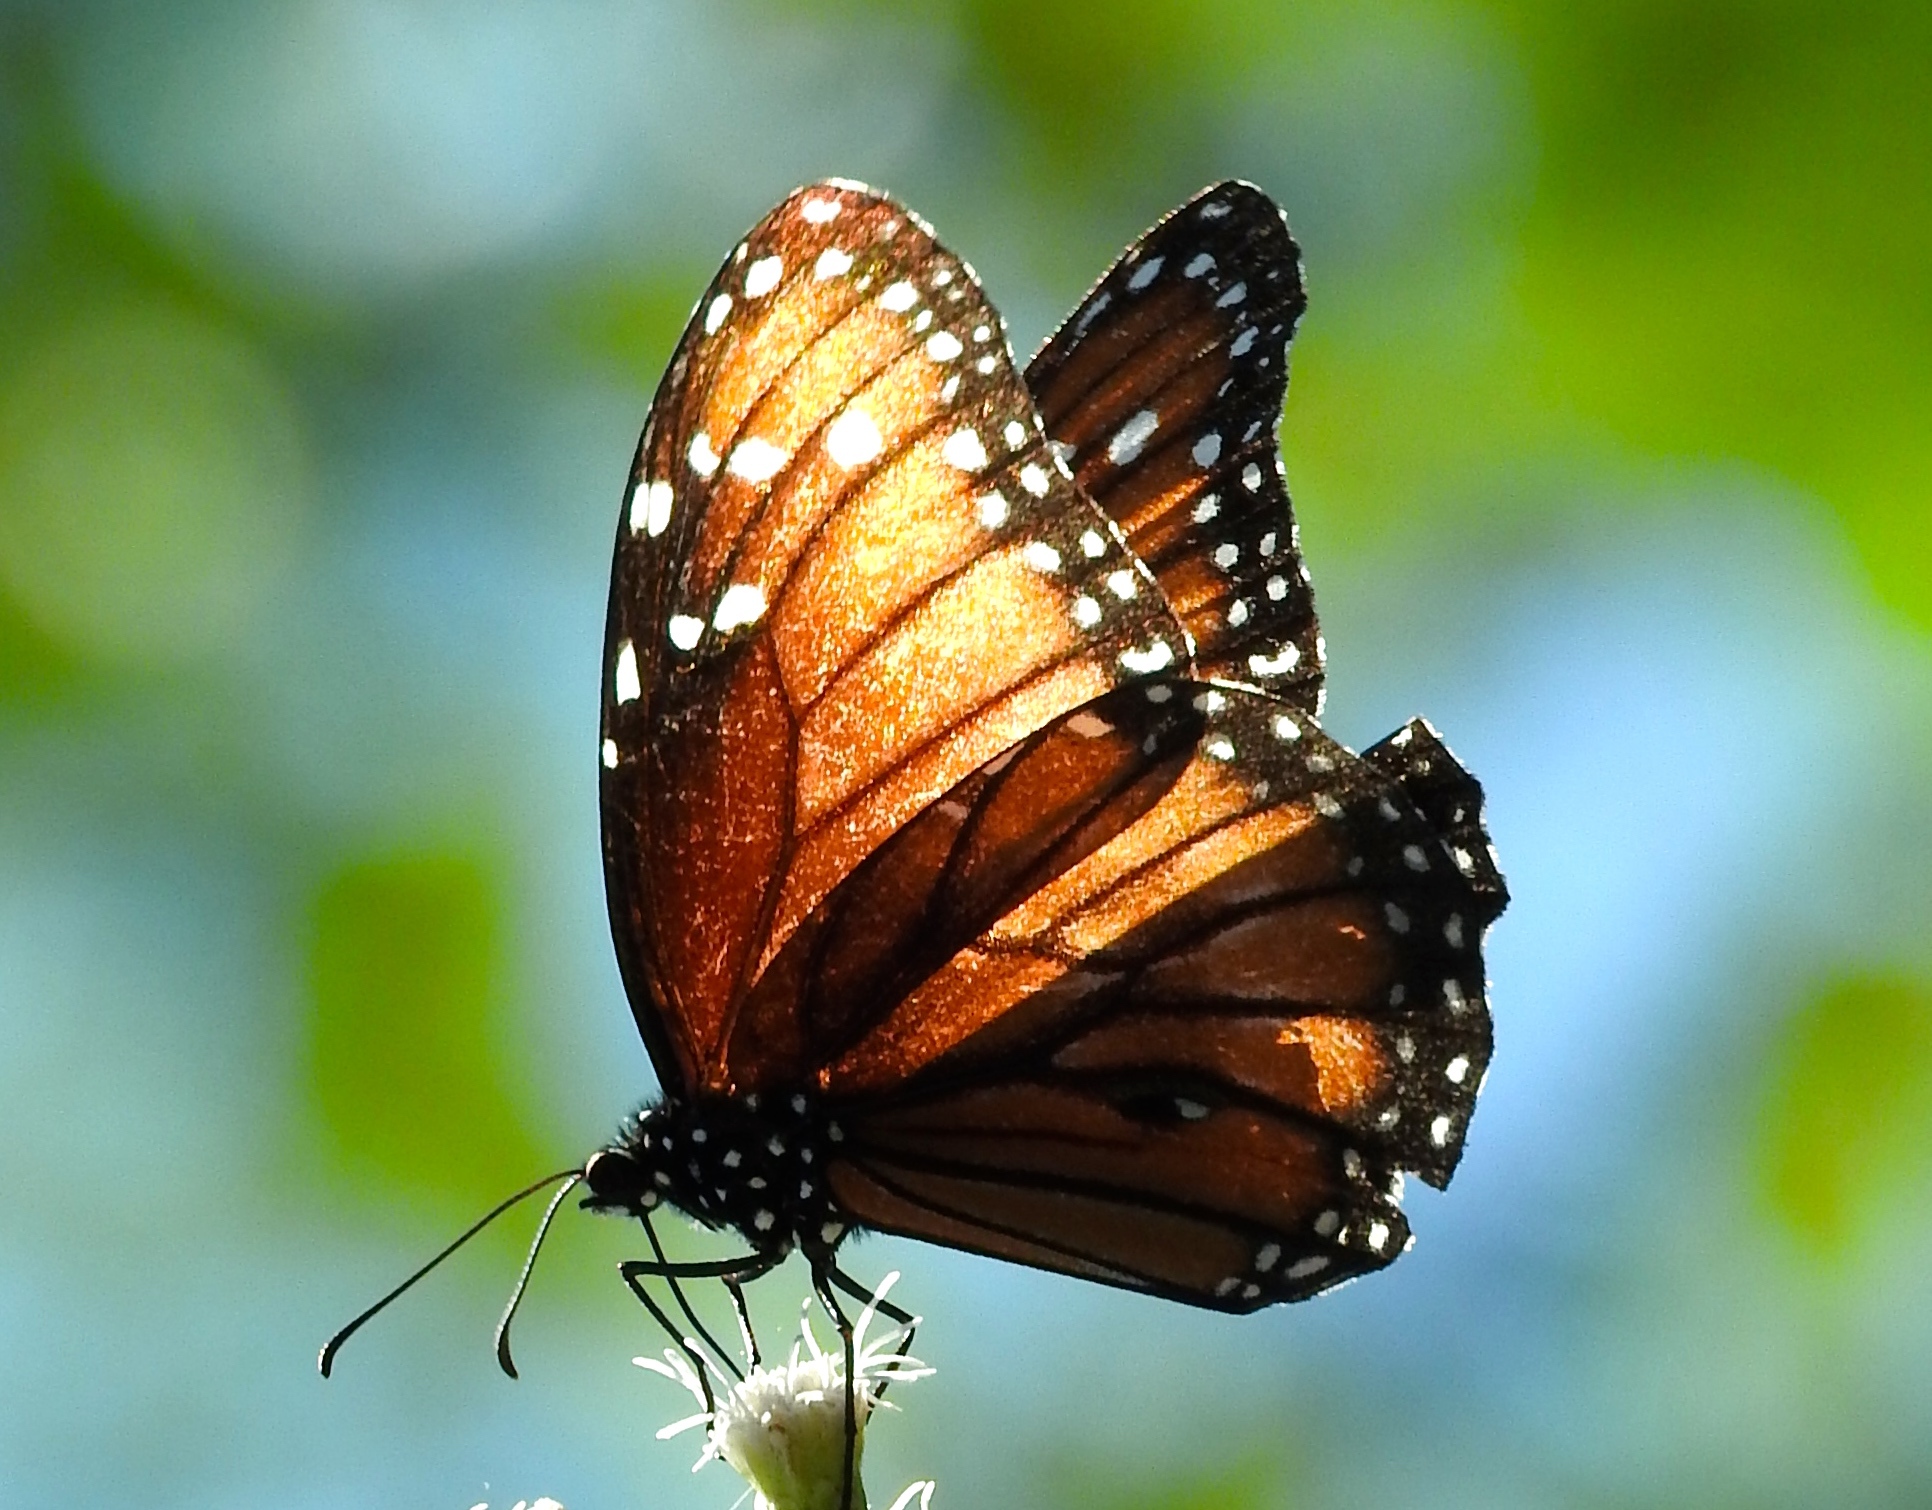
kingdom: Animalia
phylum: Arthropoda
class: Insecta
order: Lepidoptera
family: Nymphalidae
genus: Danaus
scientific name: Danaus eresimus
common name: Soldier
